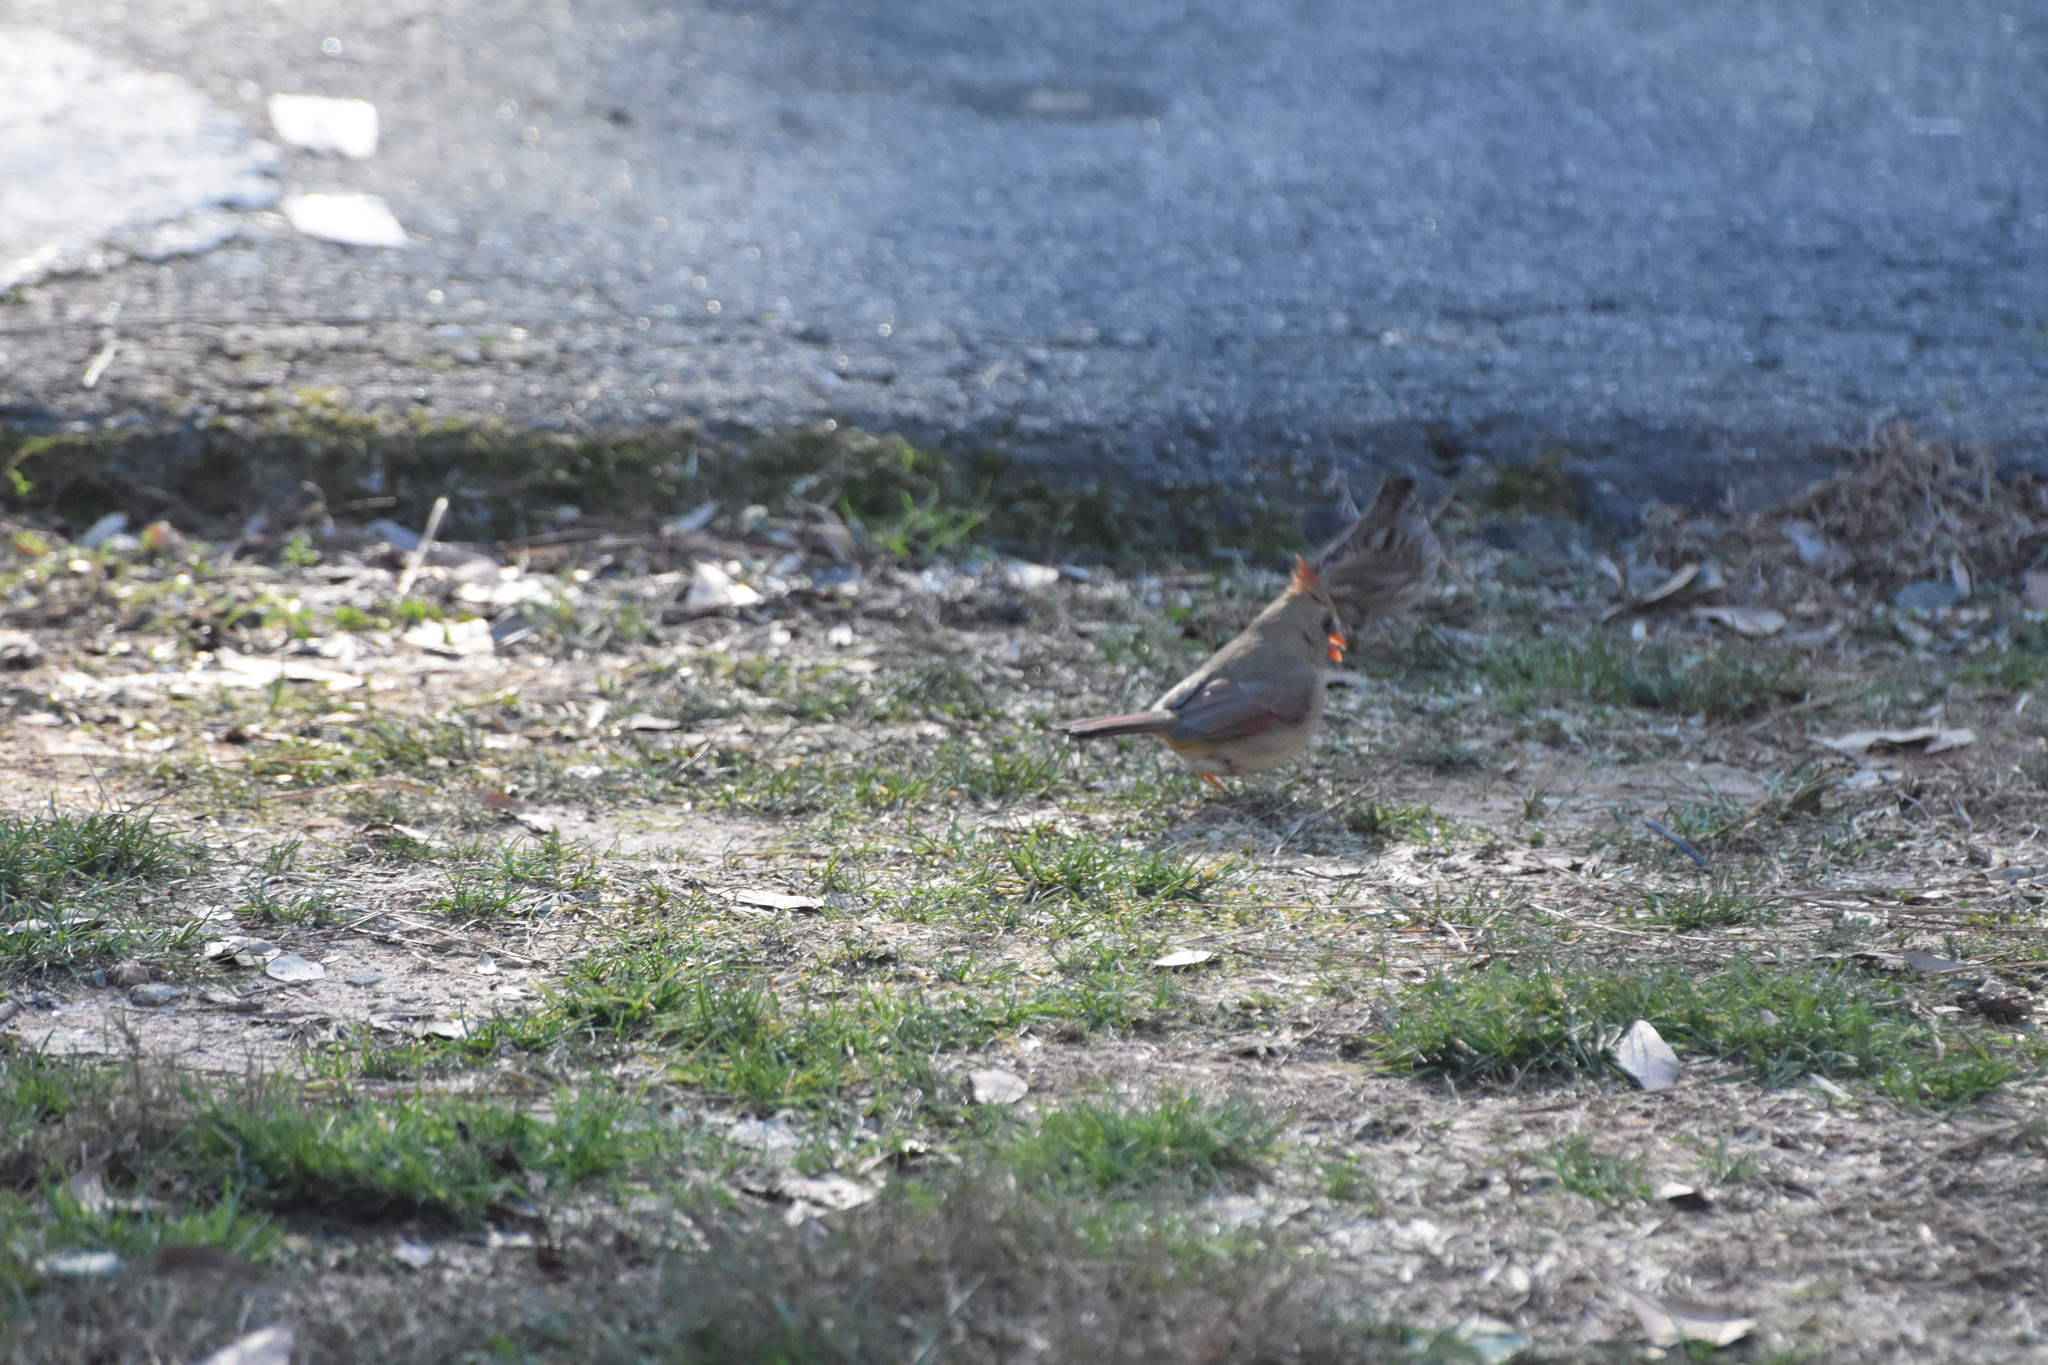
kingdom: Animalia
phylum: Chordata
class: Aves
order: Passeriformes
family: Cardinalidae
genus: Cardinalis
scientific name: Cardinalis cardinalis
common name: Northern cardinal
